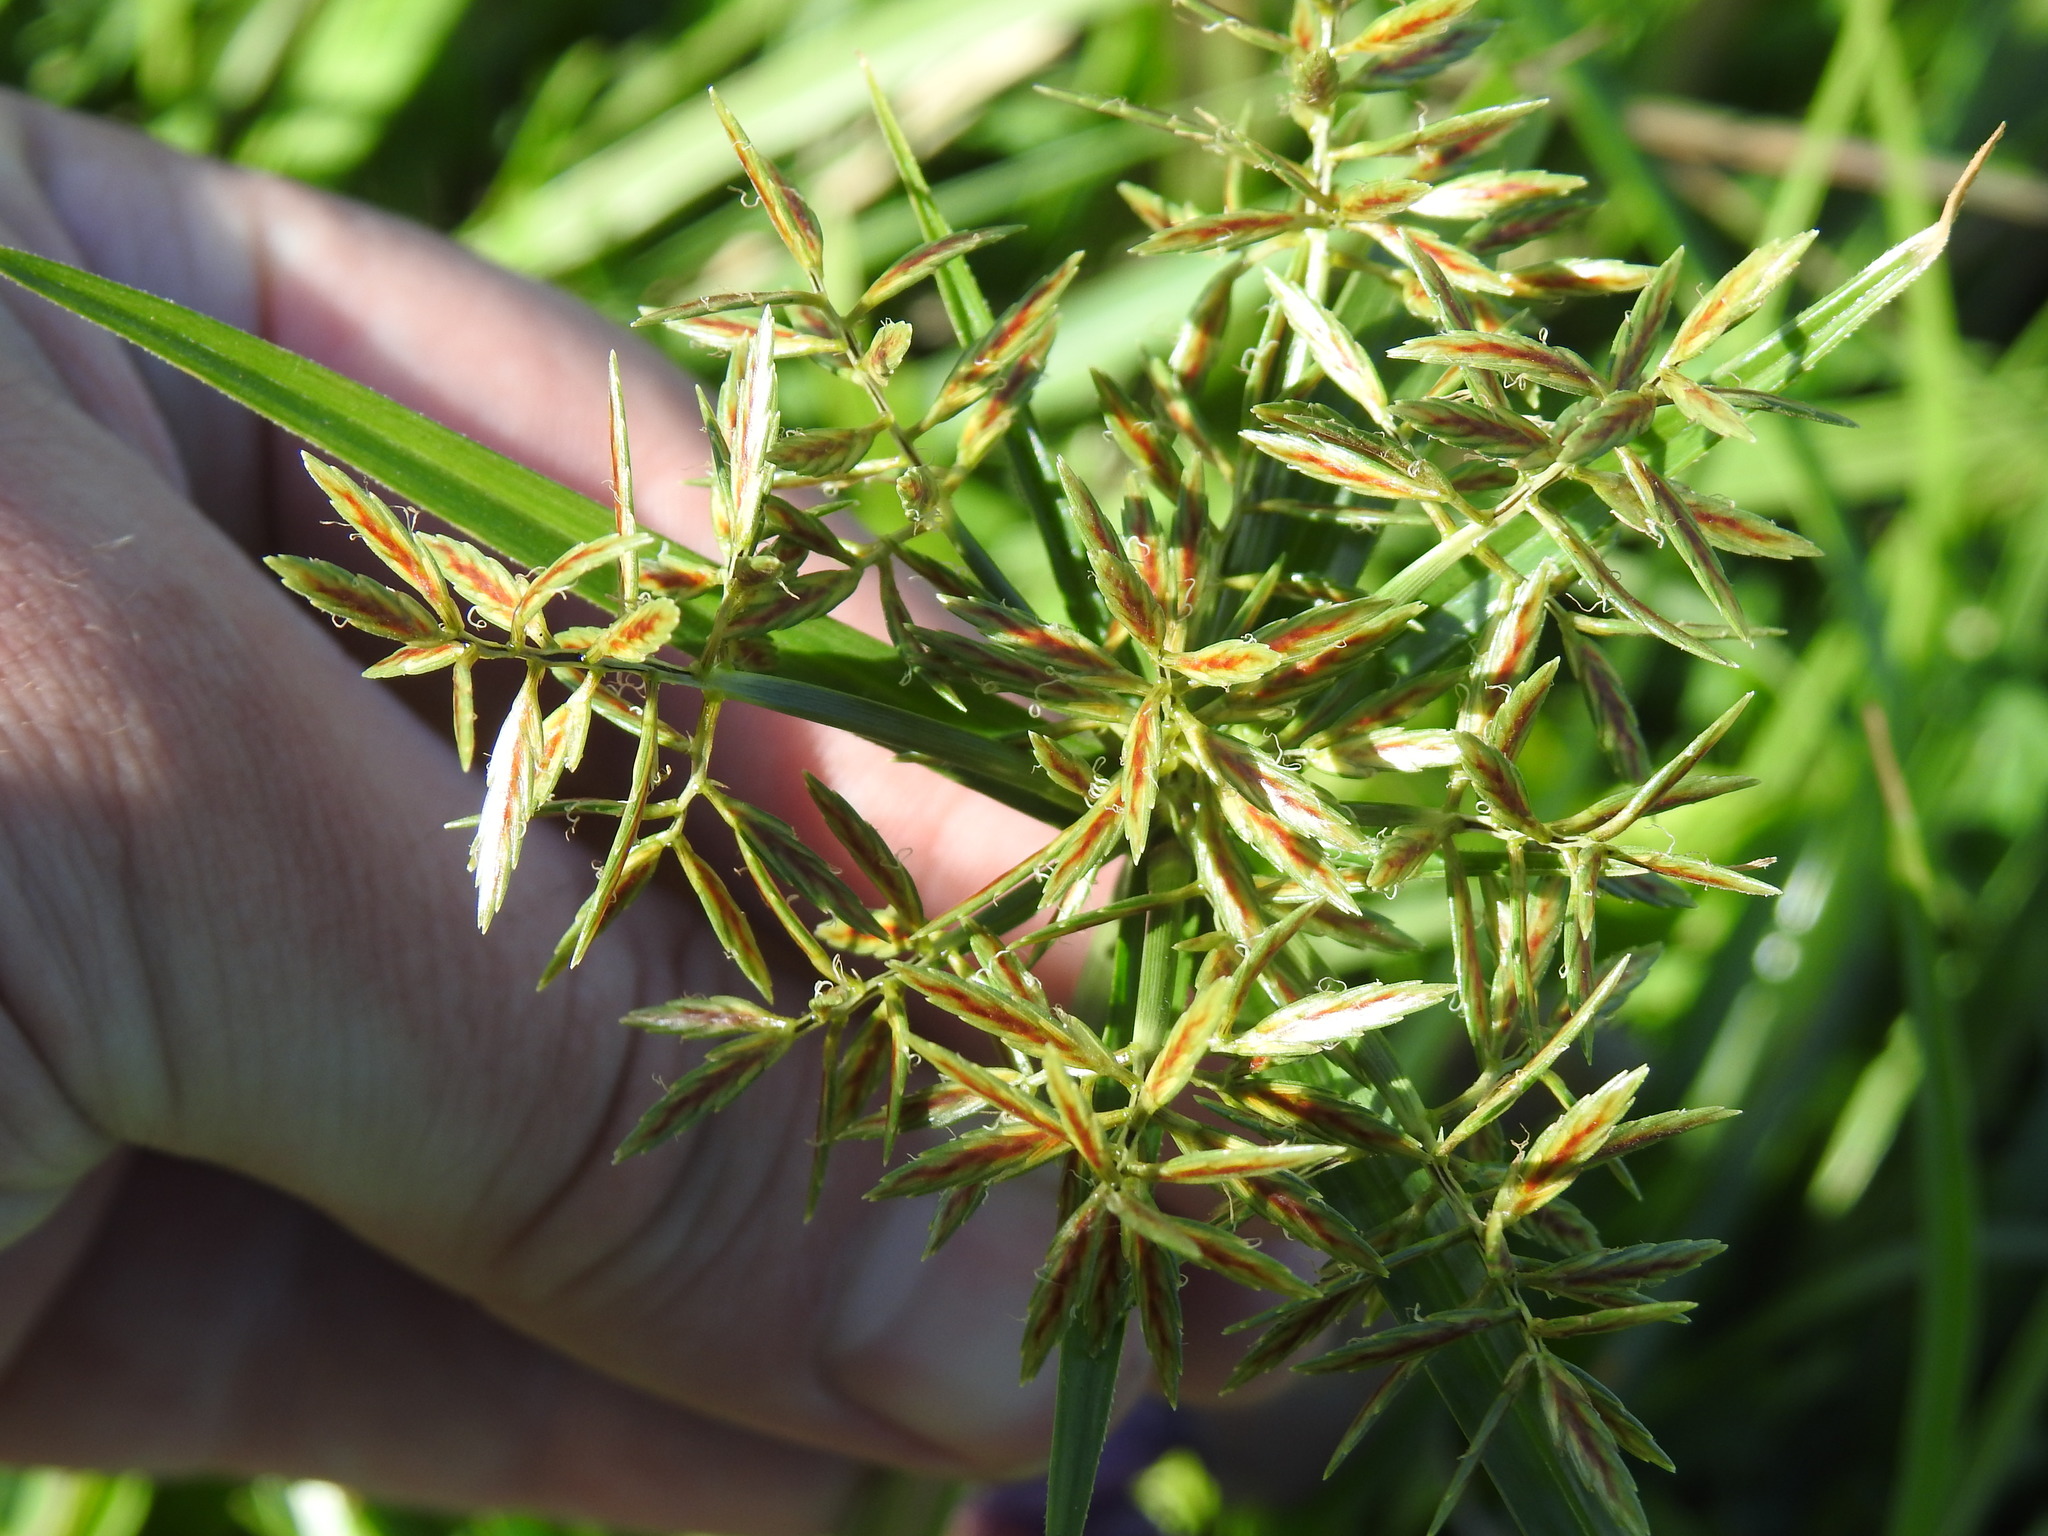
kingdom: Plantae
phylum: Tracheophyta
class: Liliopsida
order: Poales
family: Cyperaceae
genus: Cyperus
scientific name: Cyperus intactus
